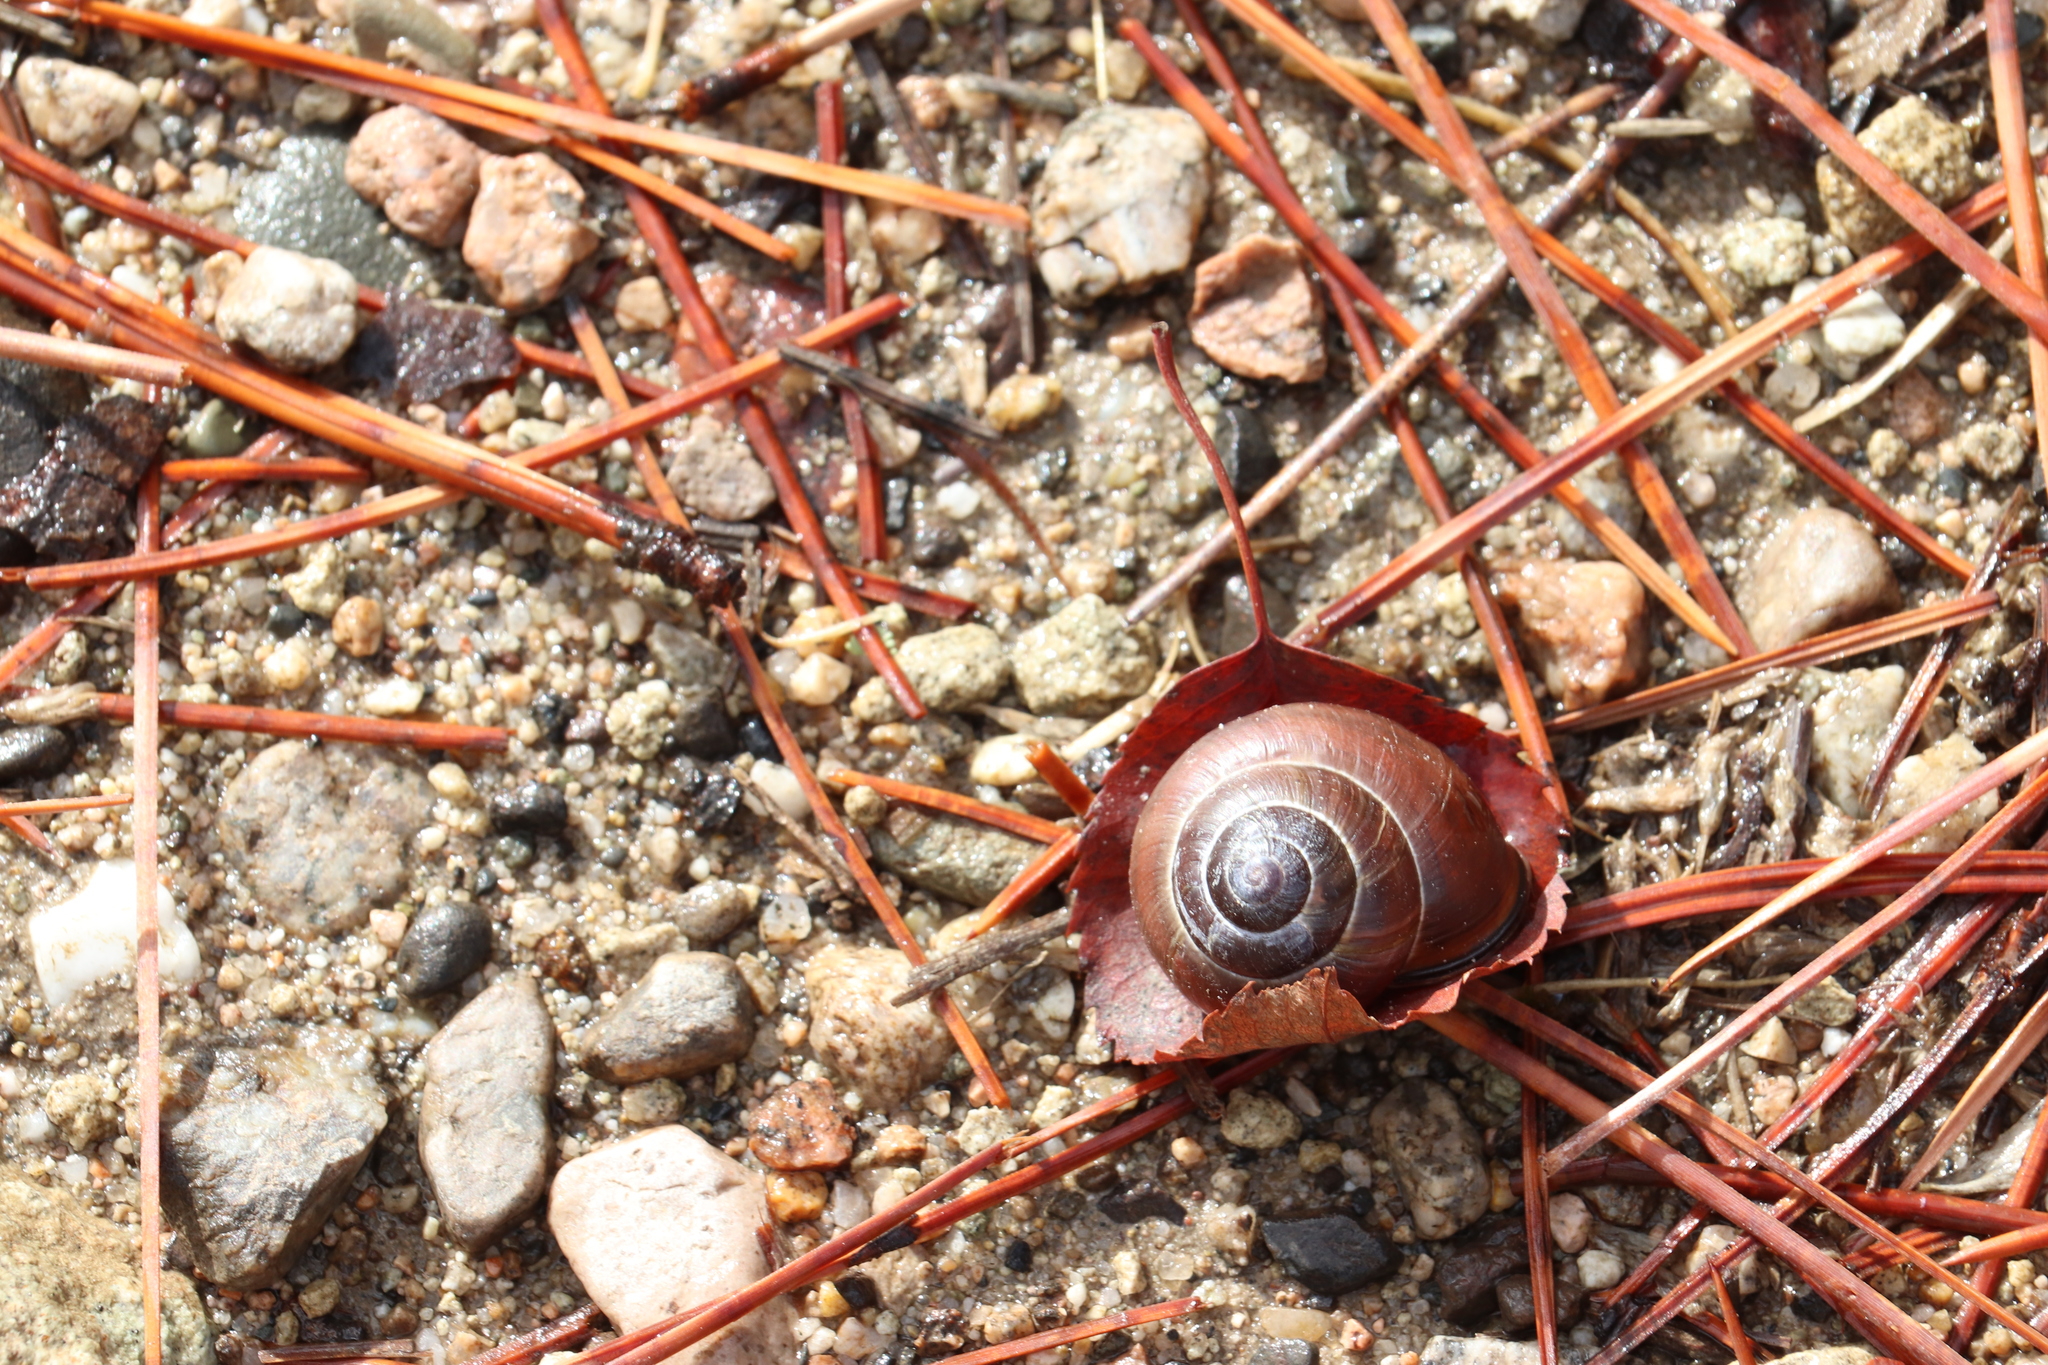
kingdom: Animalia
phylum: Mollusca
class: Gastropoda
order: Stylommatophora
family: Helicidae
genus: Cepaea
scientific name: Cepaea nemoralis
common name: Grovesnail
